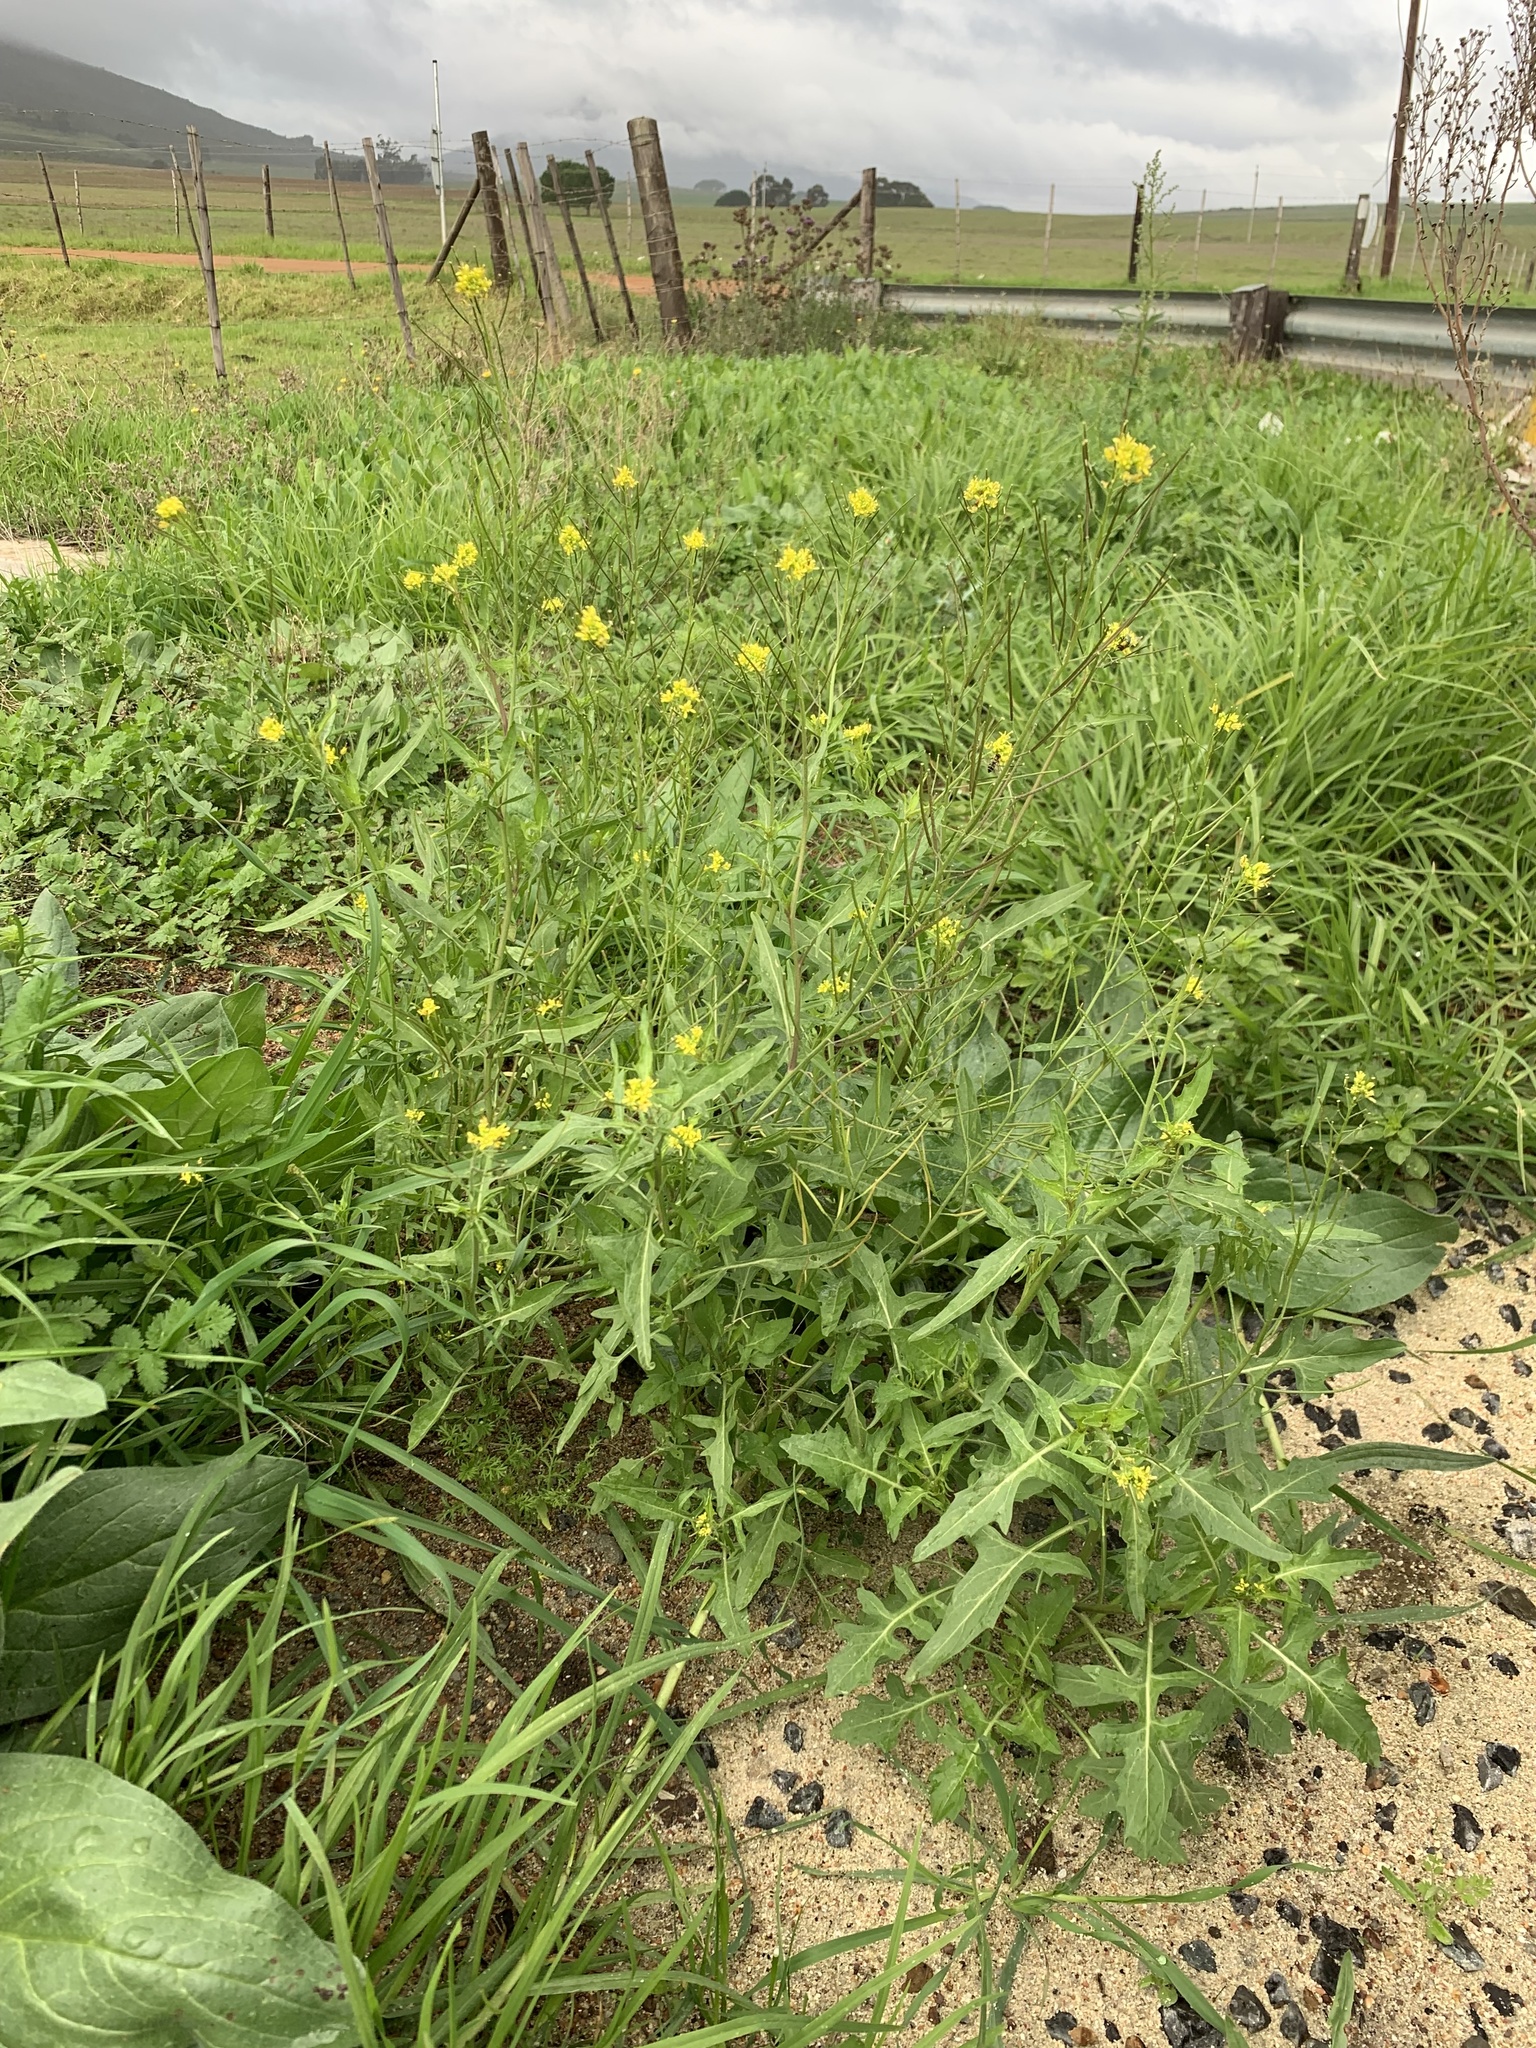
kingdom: Plantae
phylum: Tracheophyta
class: Magnoliopsida
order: Brassicales
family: Brassicaceae
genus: Sisymbrium
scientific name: Sisymbrium irio
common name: London rocket
